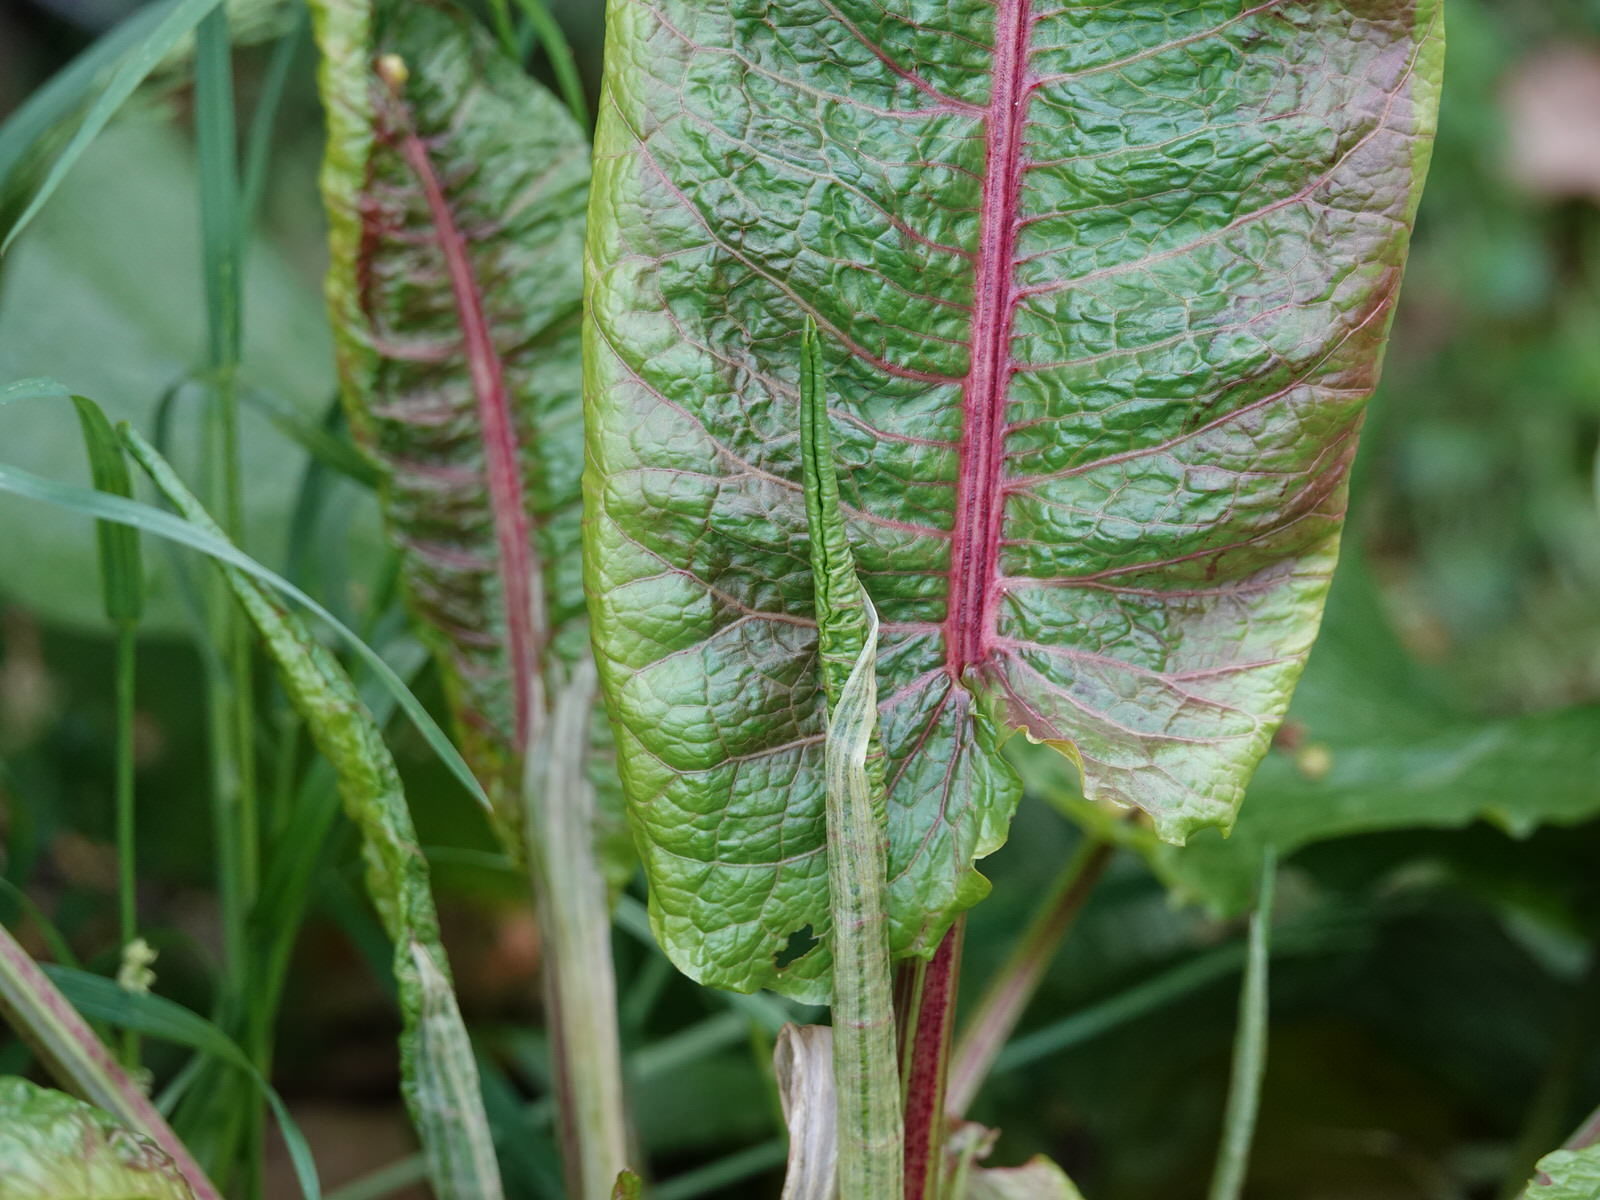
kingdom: Plantae
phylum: Tracheophyta
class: Magnoliopsida
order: Caryophyllales
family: Polygonaceae
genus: Rumex
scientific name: Rumex obtusifolius
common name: Bitter dock
